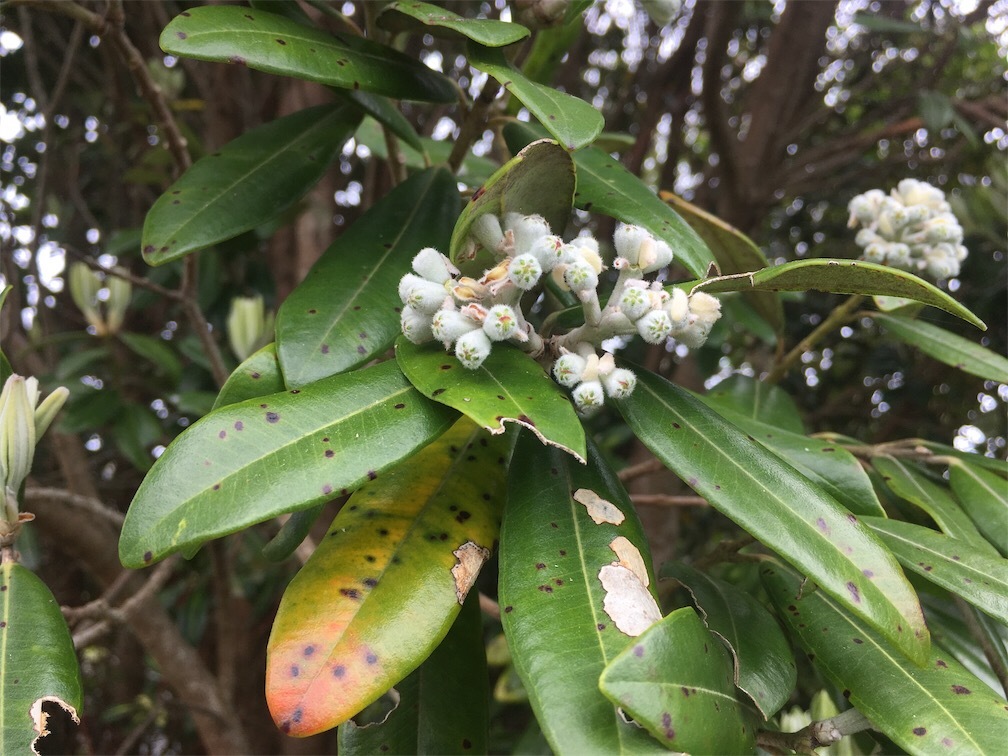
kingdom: Plantae
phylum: Tracheophyta
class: Magnoliopsida
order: Myrtales
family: Myrtaceae
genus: Metrosideros
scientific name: Metrosideros excelsa
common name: New zealand christmastree
